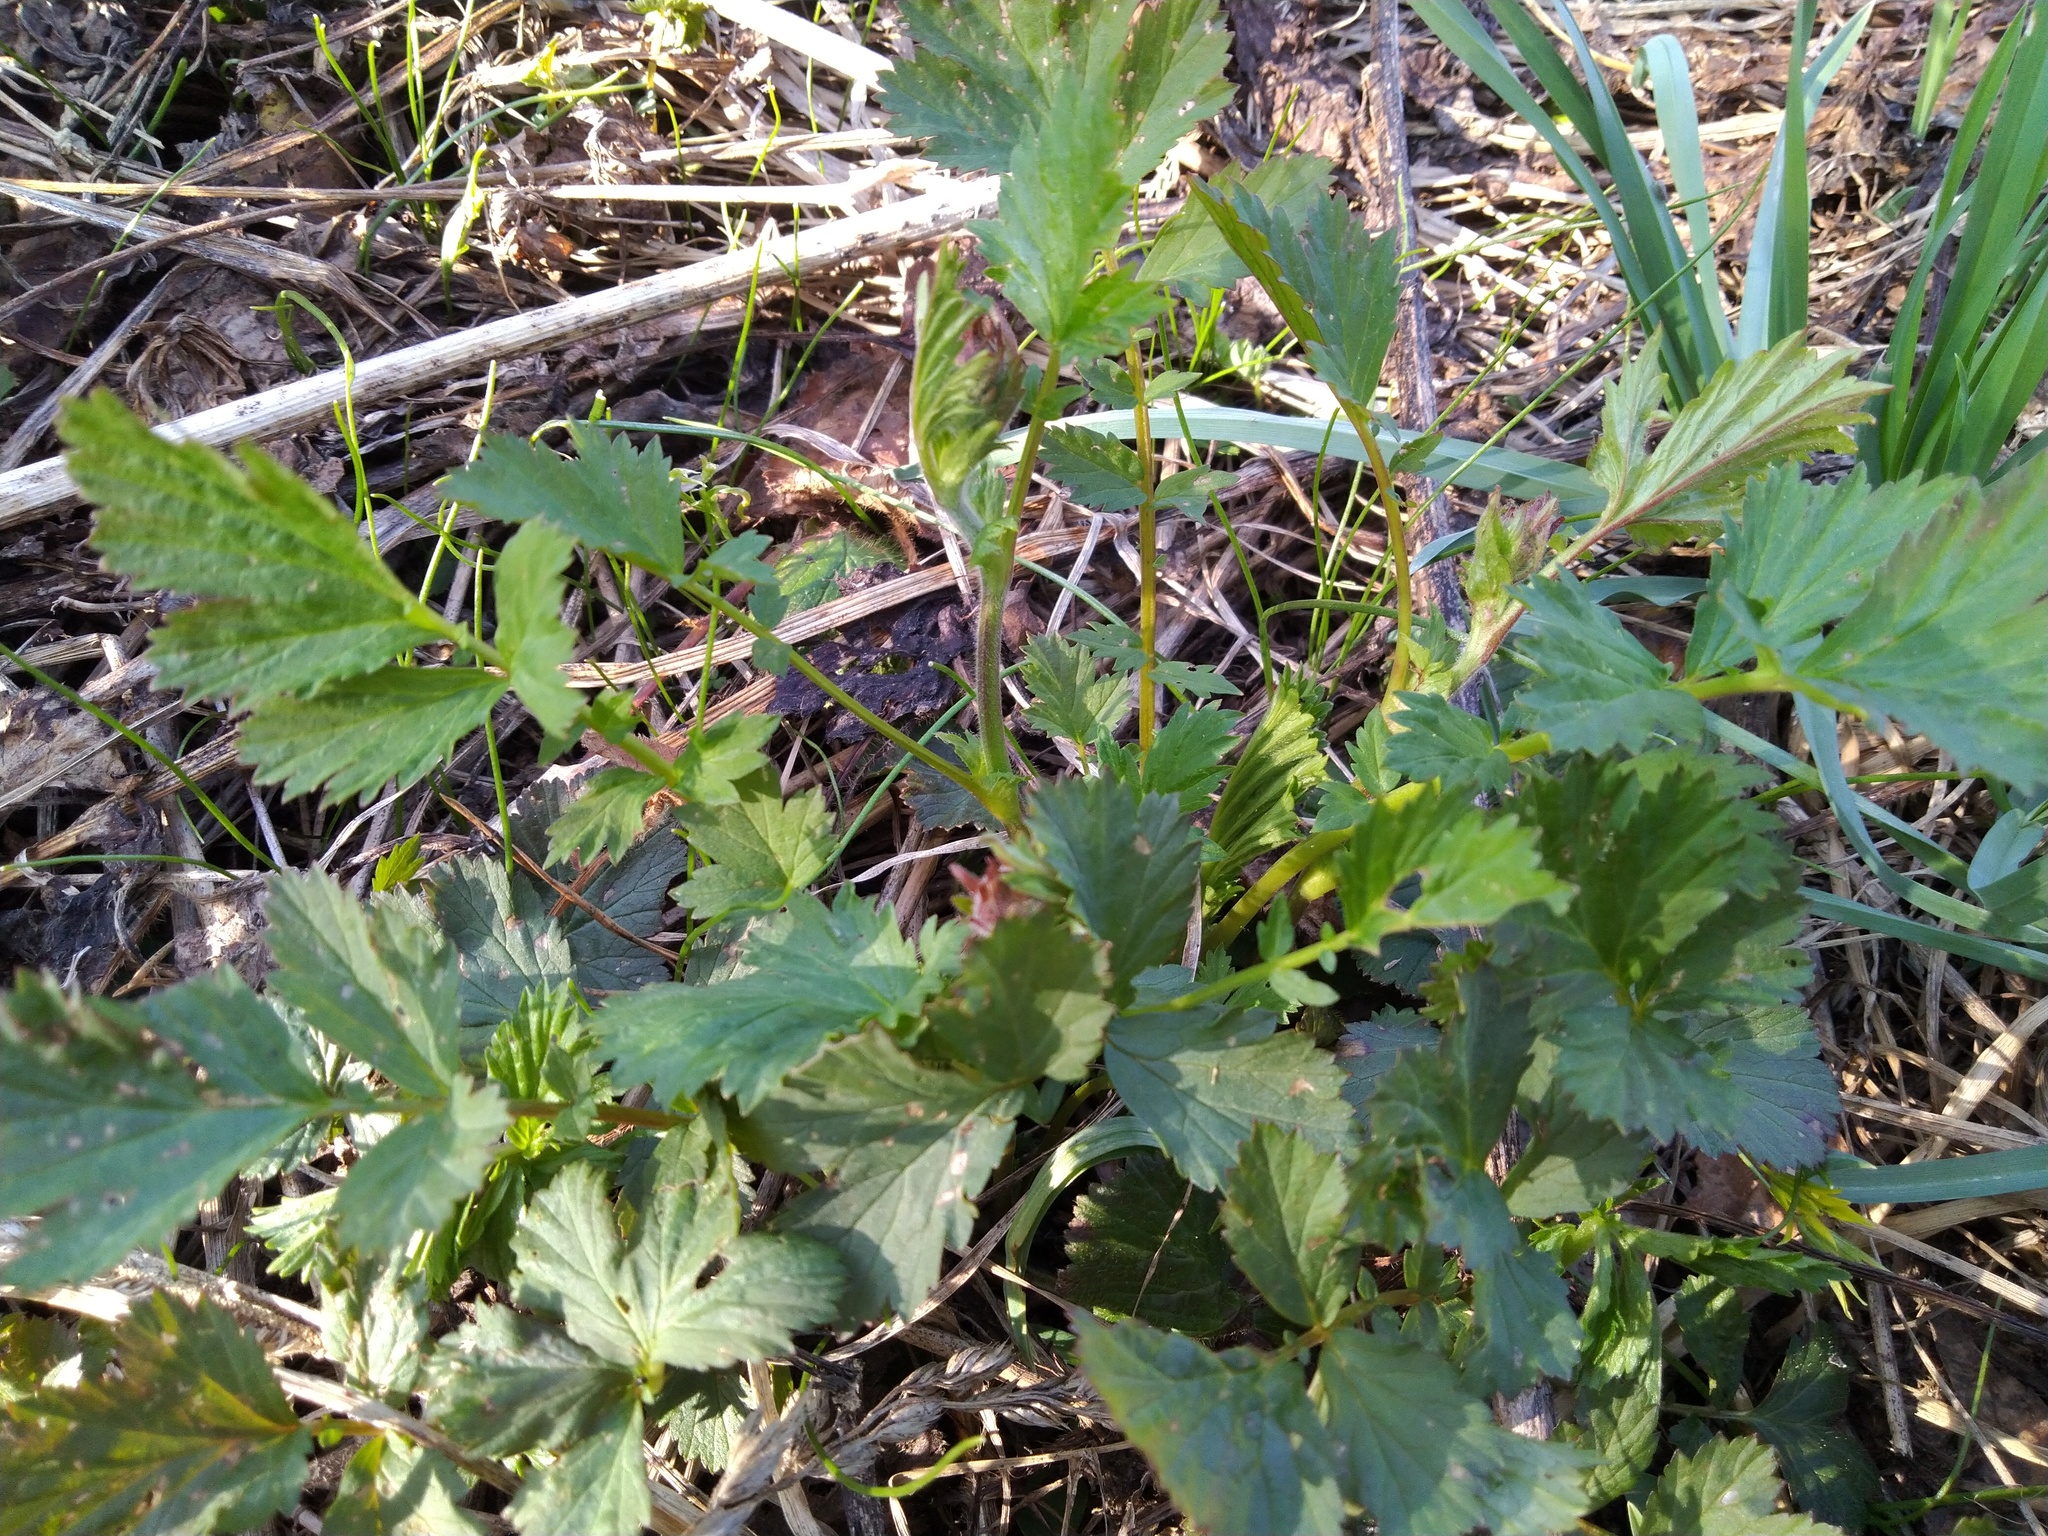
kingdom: Plantae
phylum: Tracheophyta
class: Magnoliopsida
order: Rosales
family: Rosaceae
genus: Geum
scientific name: Geum rivale
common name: Water avens
